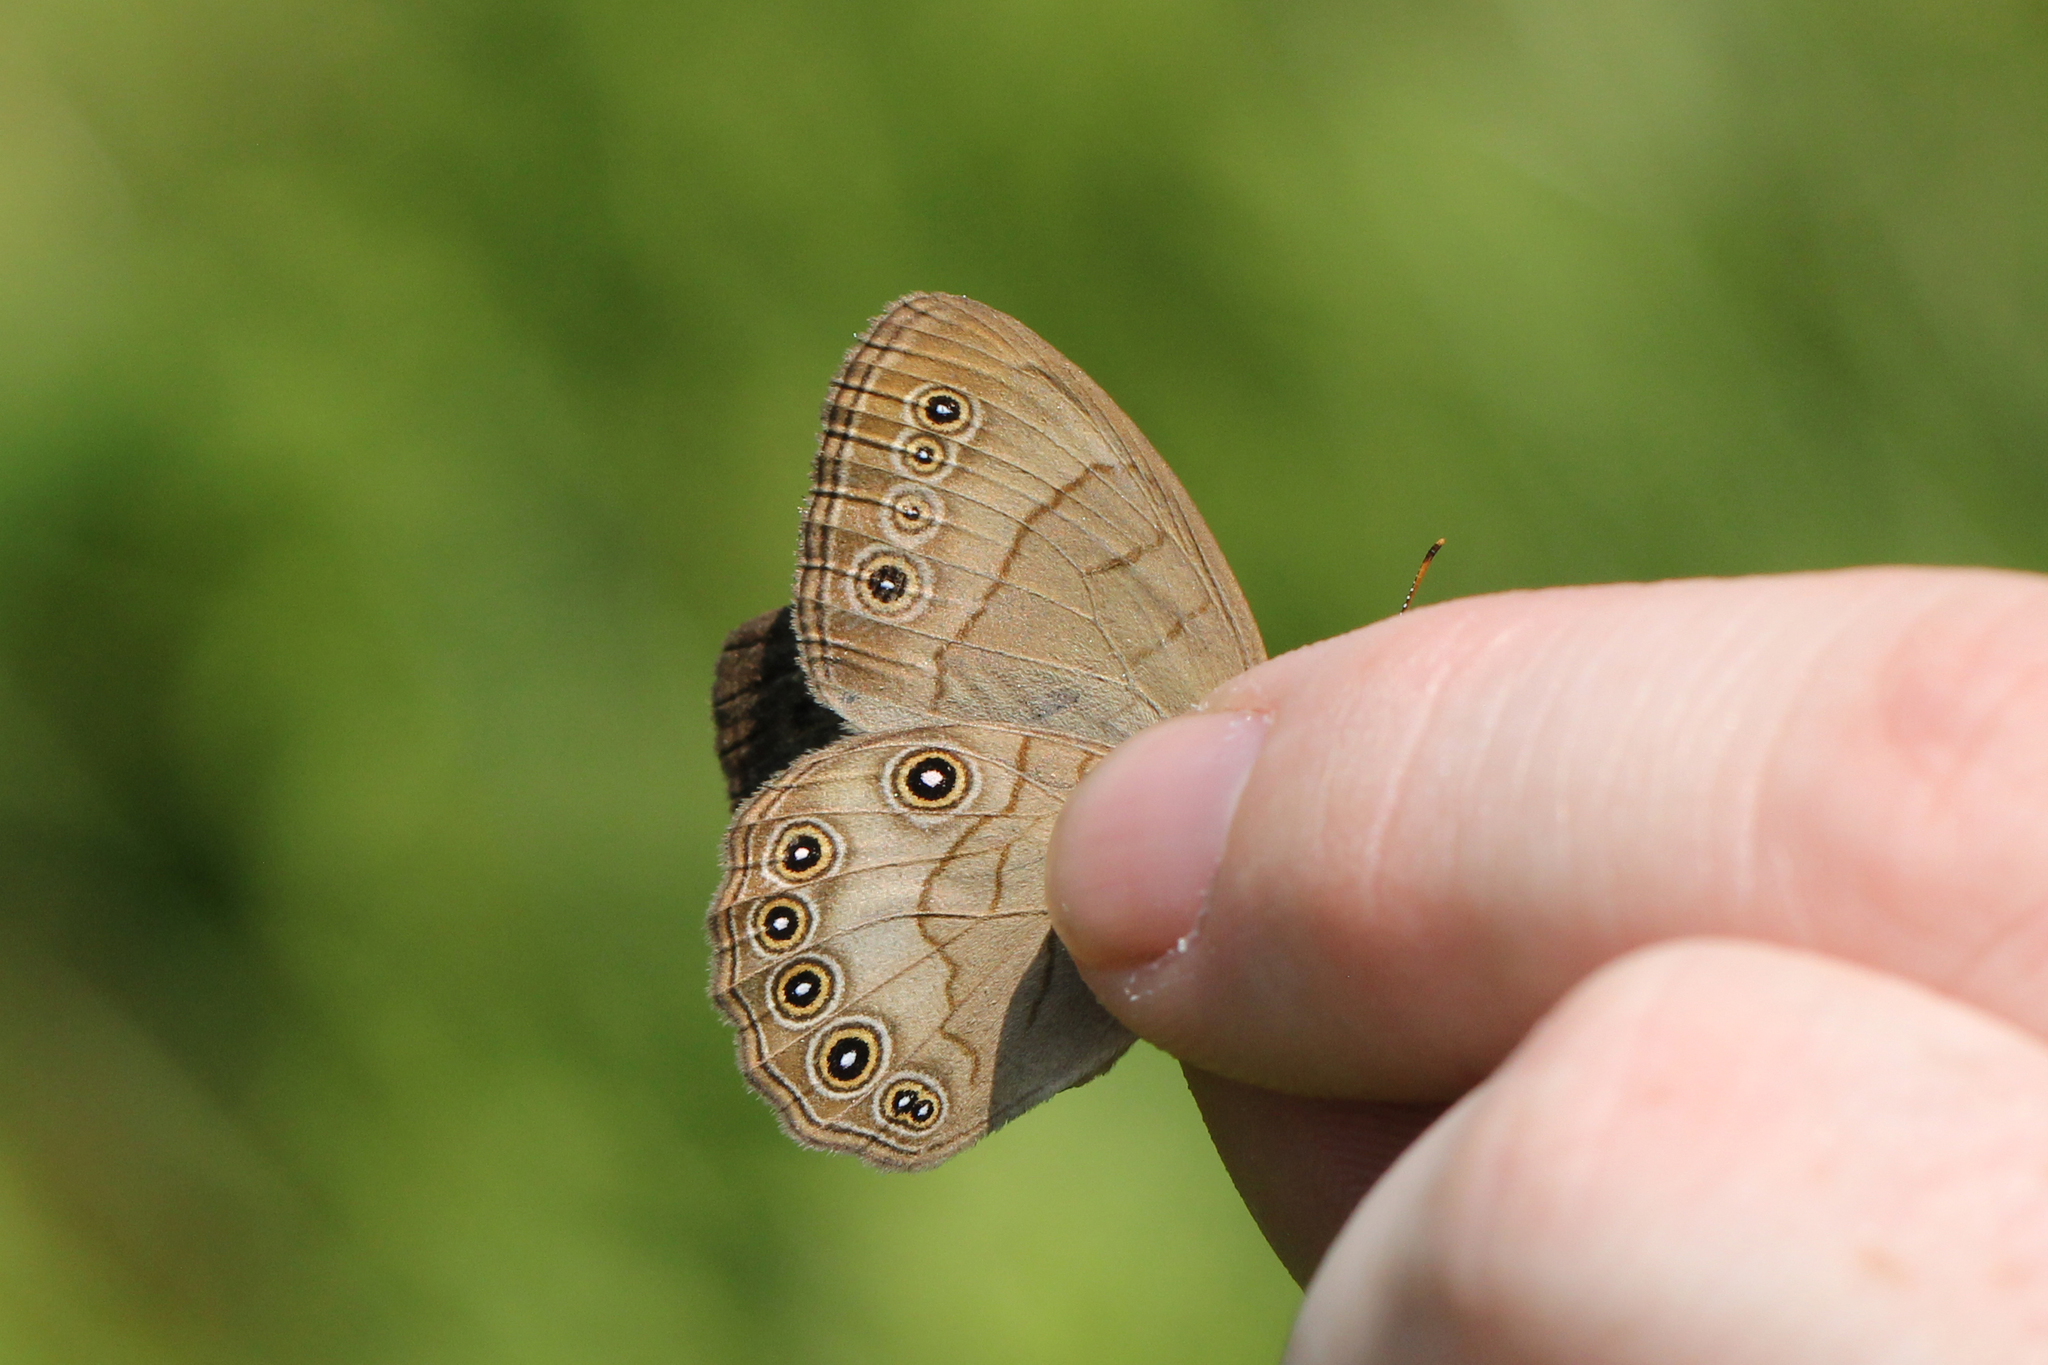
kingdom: Animalia
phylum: Arthropoda
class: Insecta
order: Lepidoptera
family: Nymphalidae
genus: Lethe
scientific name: Lethe eurydice
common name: Eyed brown
